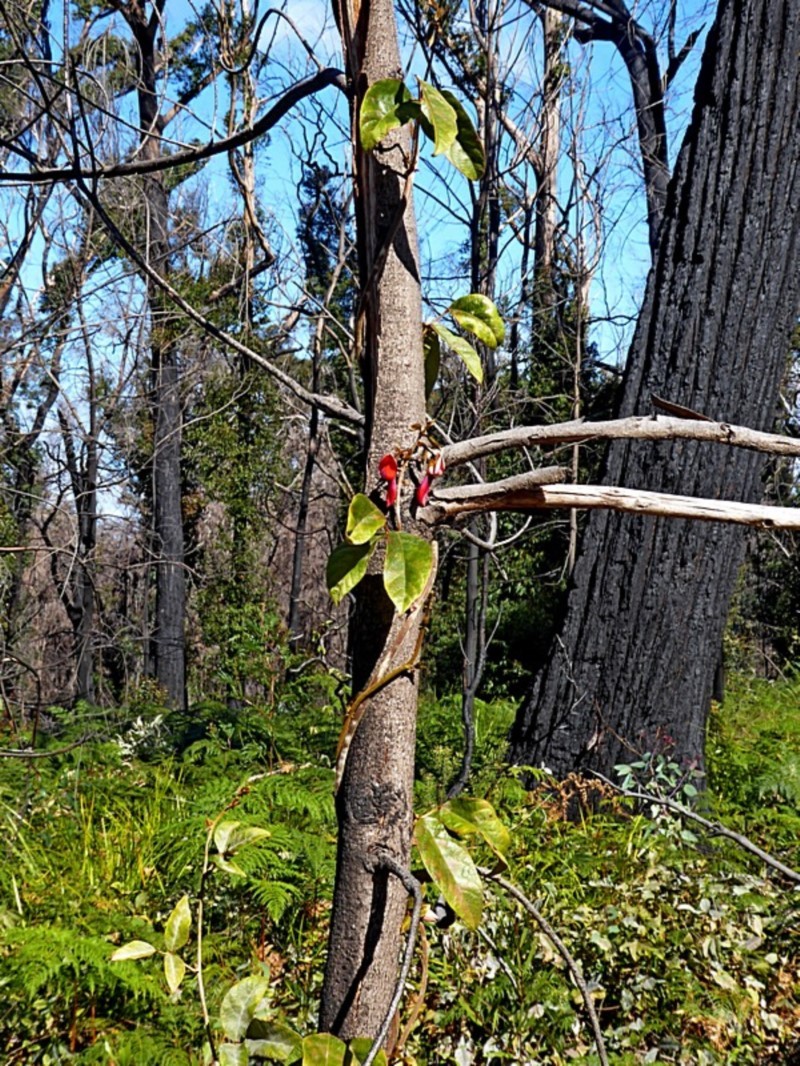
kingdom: Plantae
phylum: Tracheophyta
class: Magnoliopsida
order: Fabales
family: Fabaceae
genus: Kennedia
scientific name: Kennedia rubicunda
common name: Red kennedy-pea
